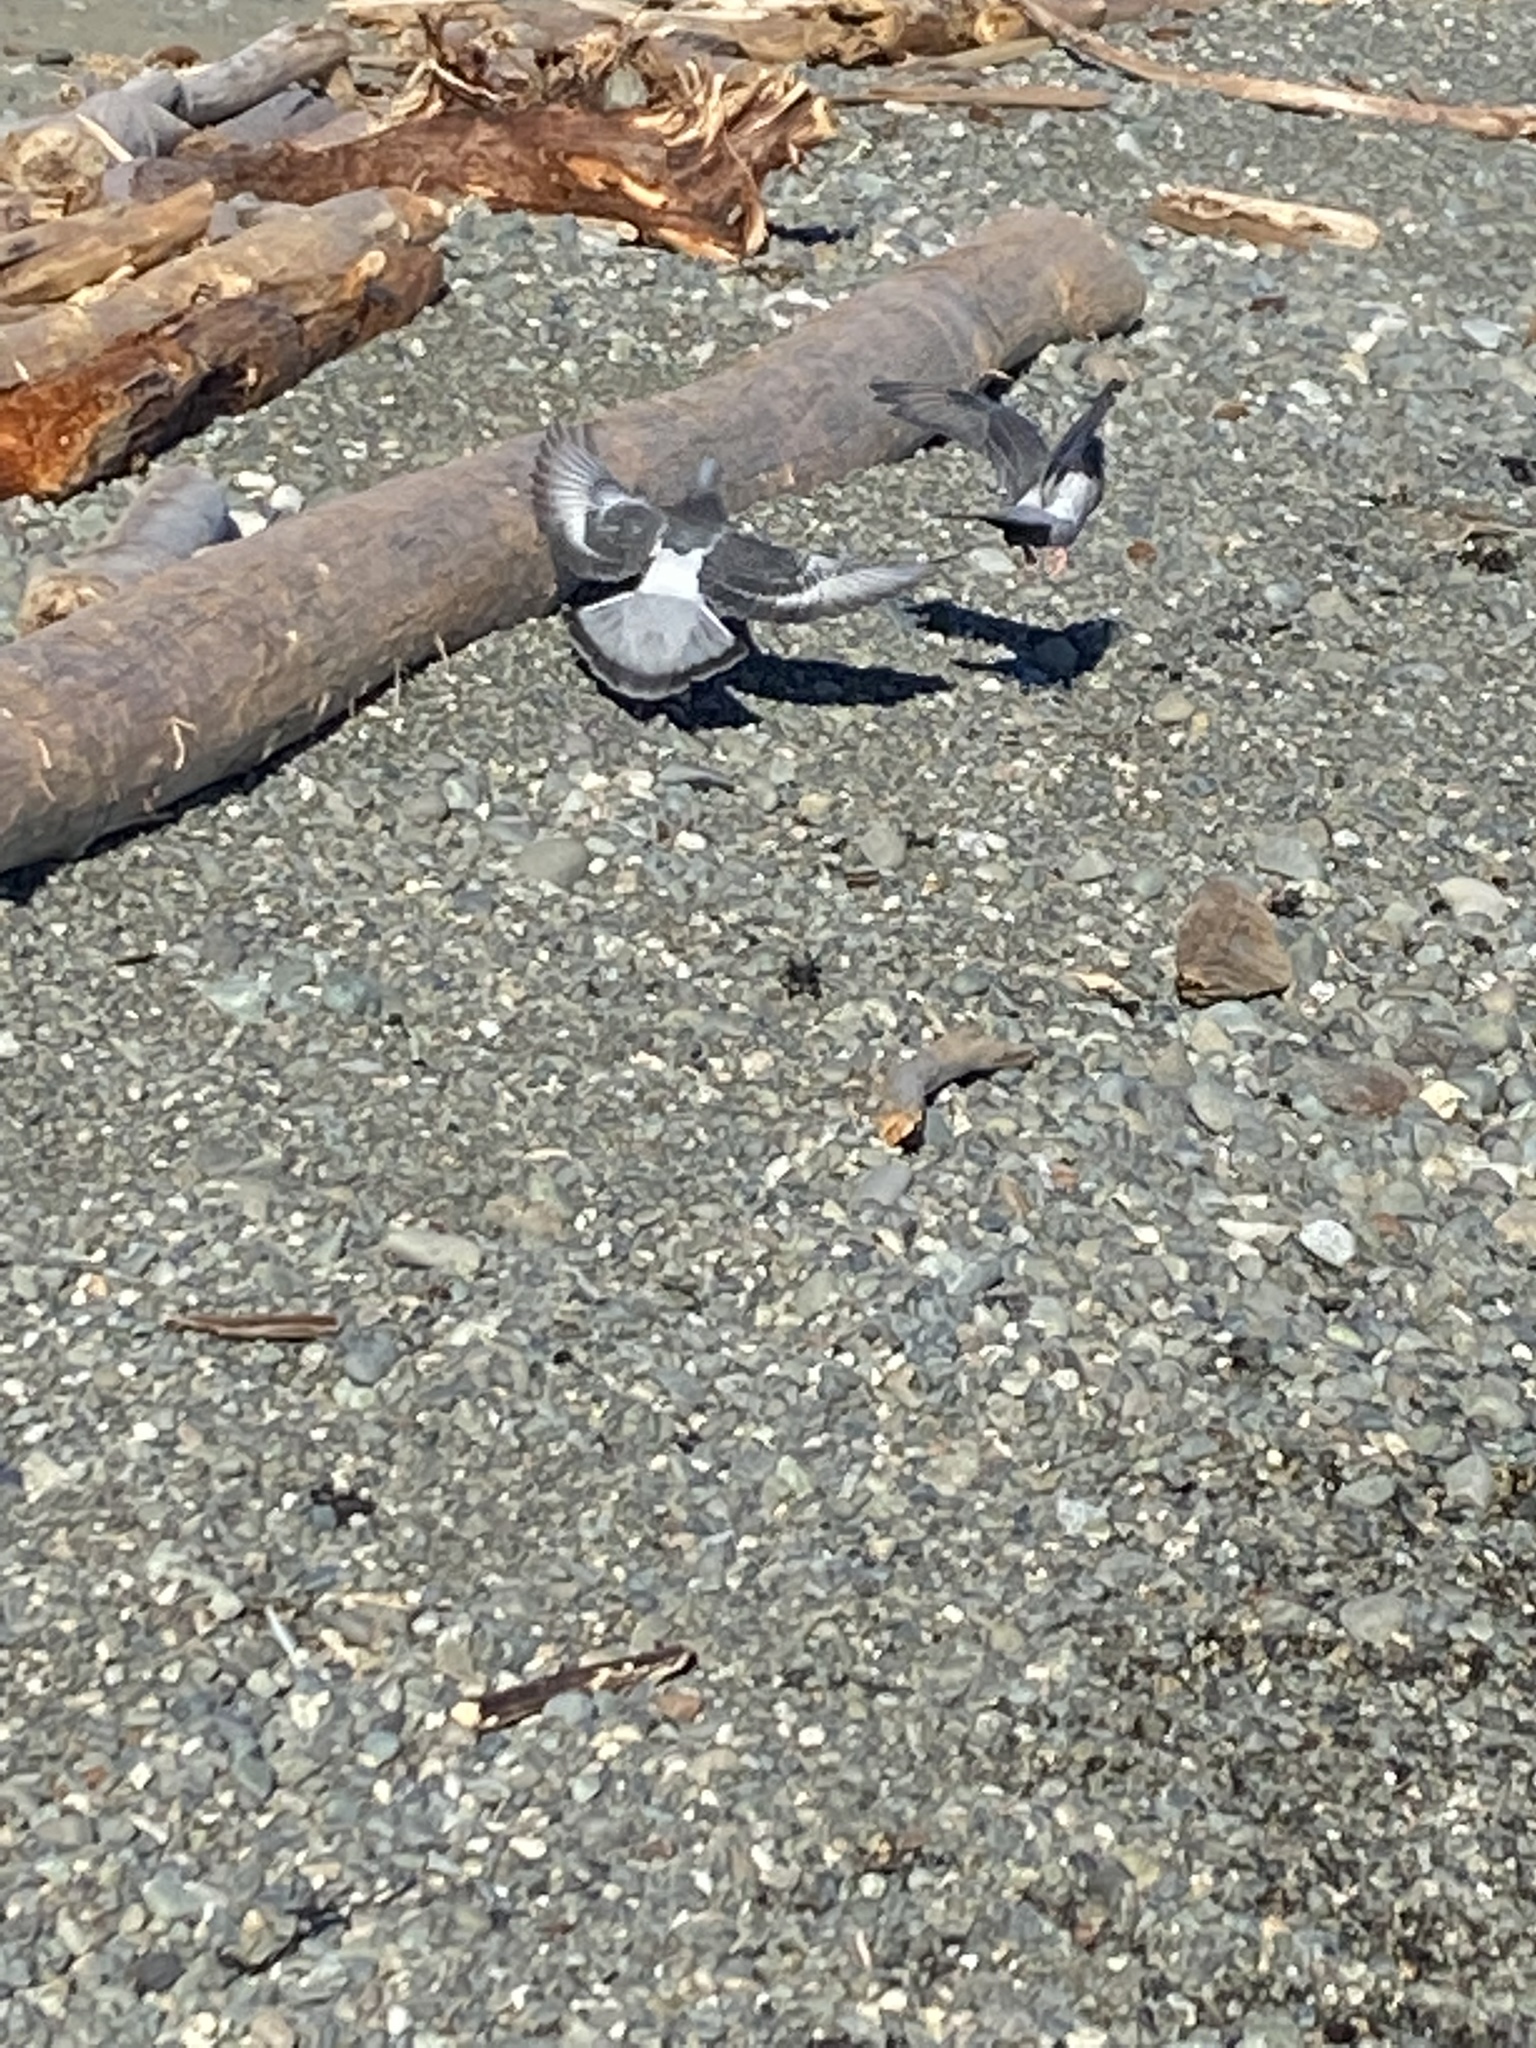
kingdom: Animalia
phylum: Chordata
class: Aves
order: Columbiformes
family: Columbidae
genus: Columba
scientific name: Columba livia
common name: Rock pigeon
